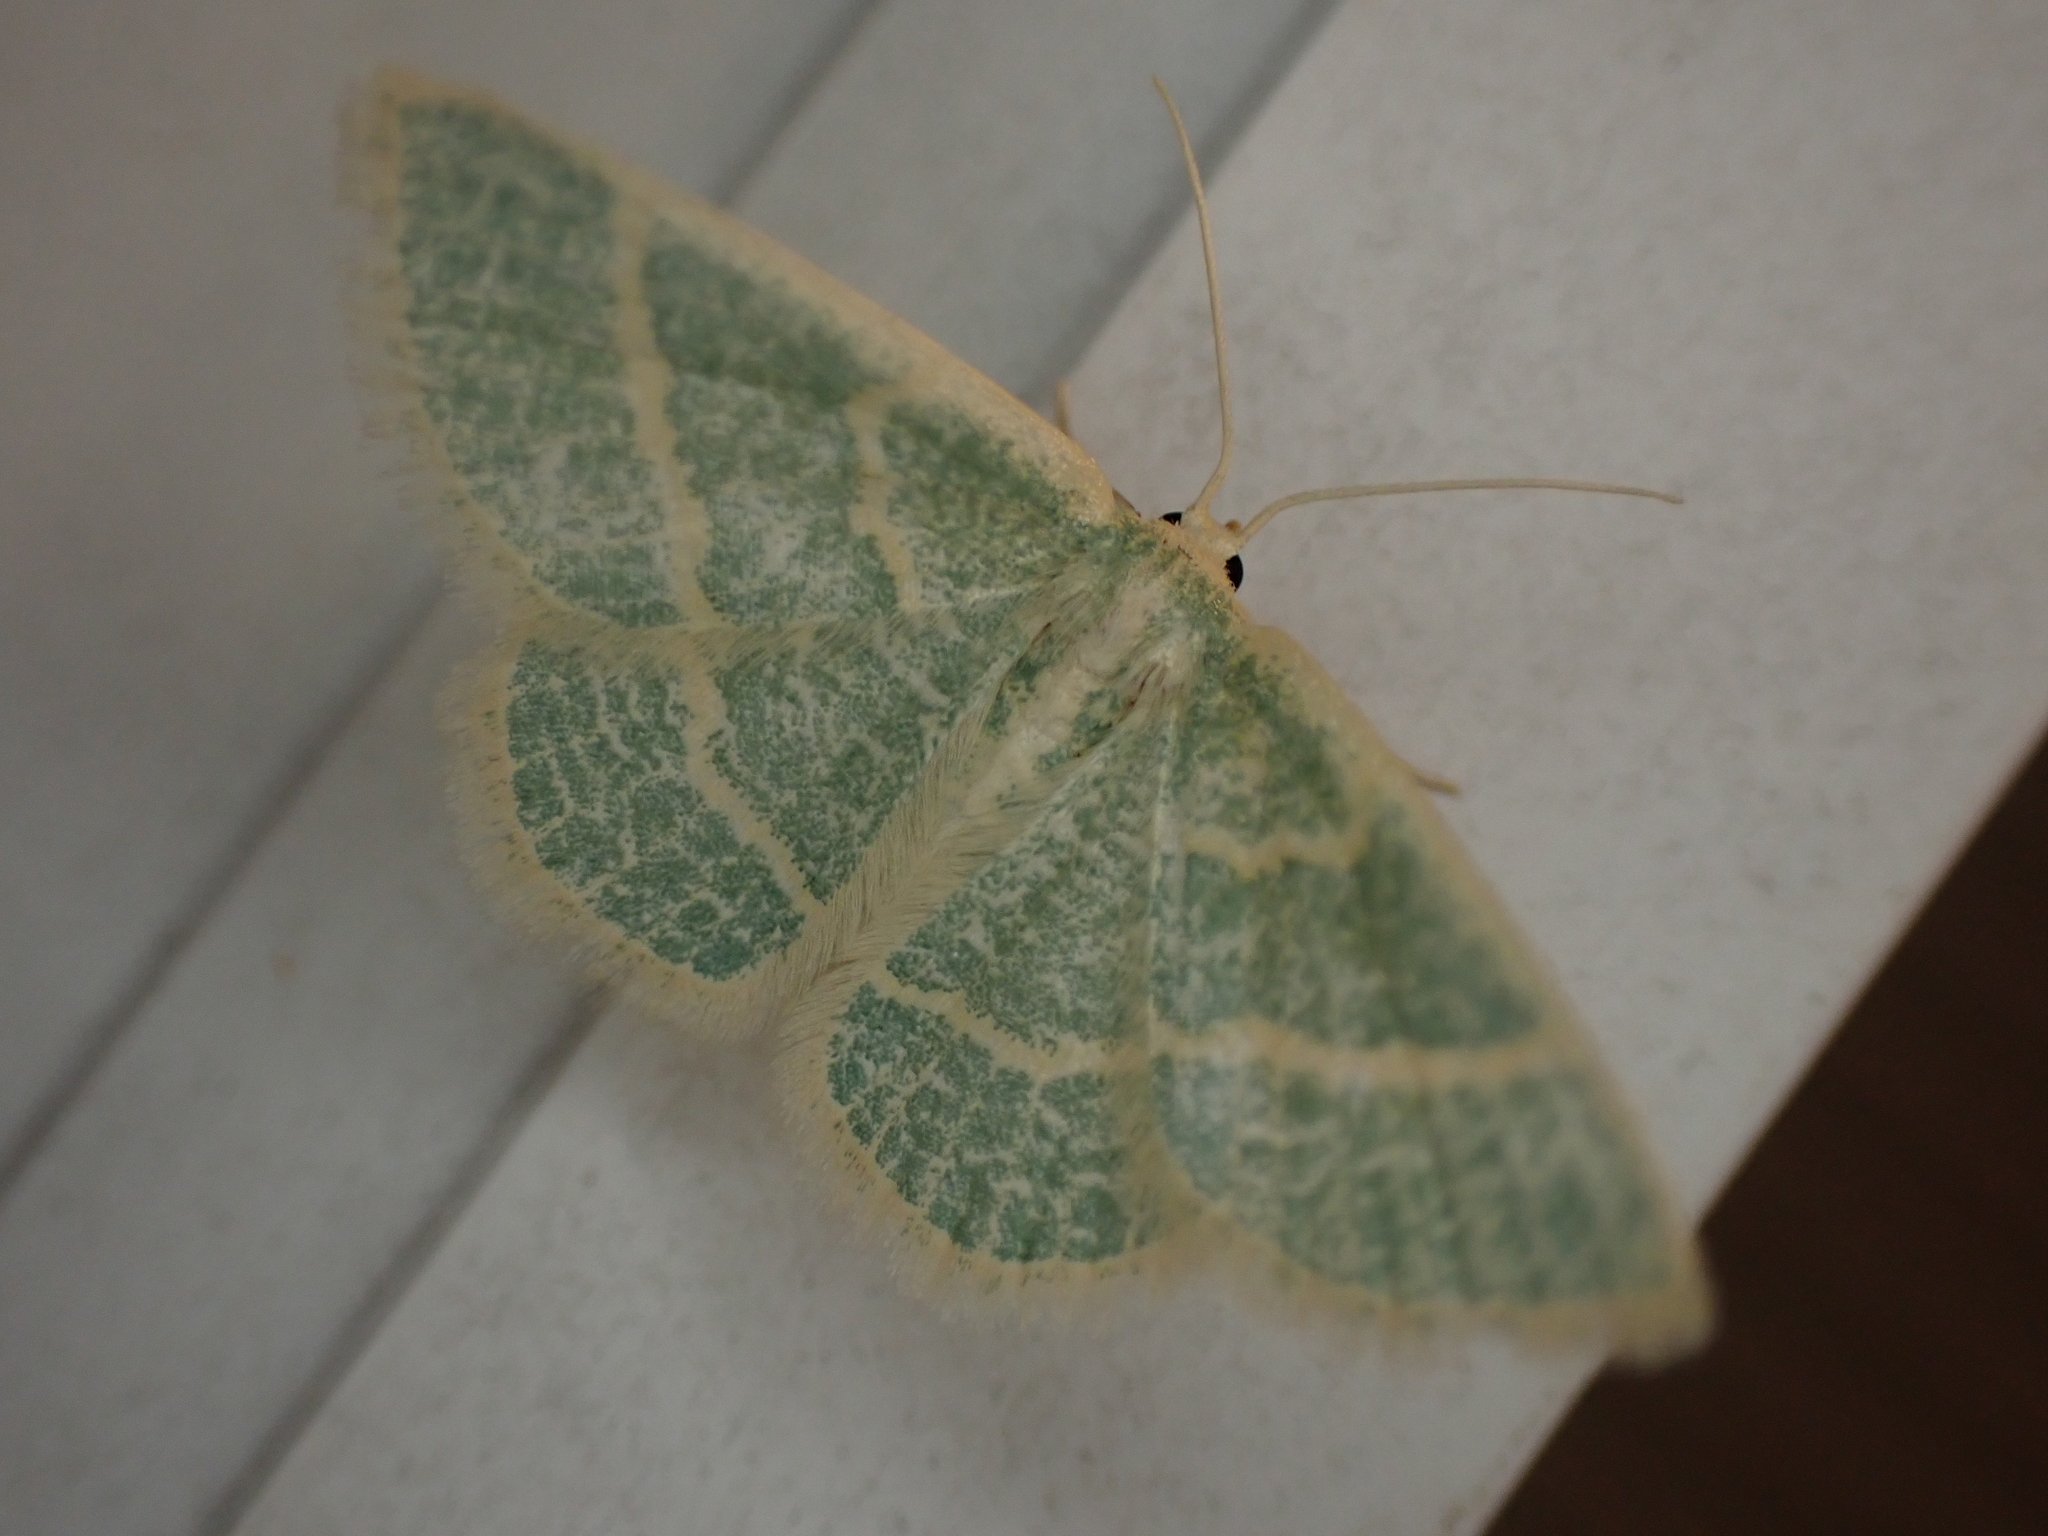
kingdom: Animalia
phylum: Arthropoda
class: Insecta
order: Lepidoptera
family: Geometridae
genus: Chlorochlamys
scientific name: Chlorochlamys chloroleucaria
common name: Blackberry looper
